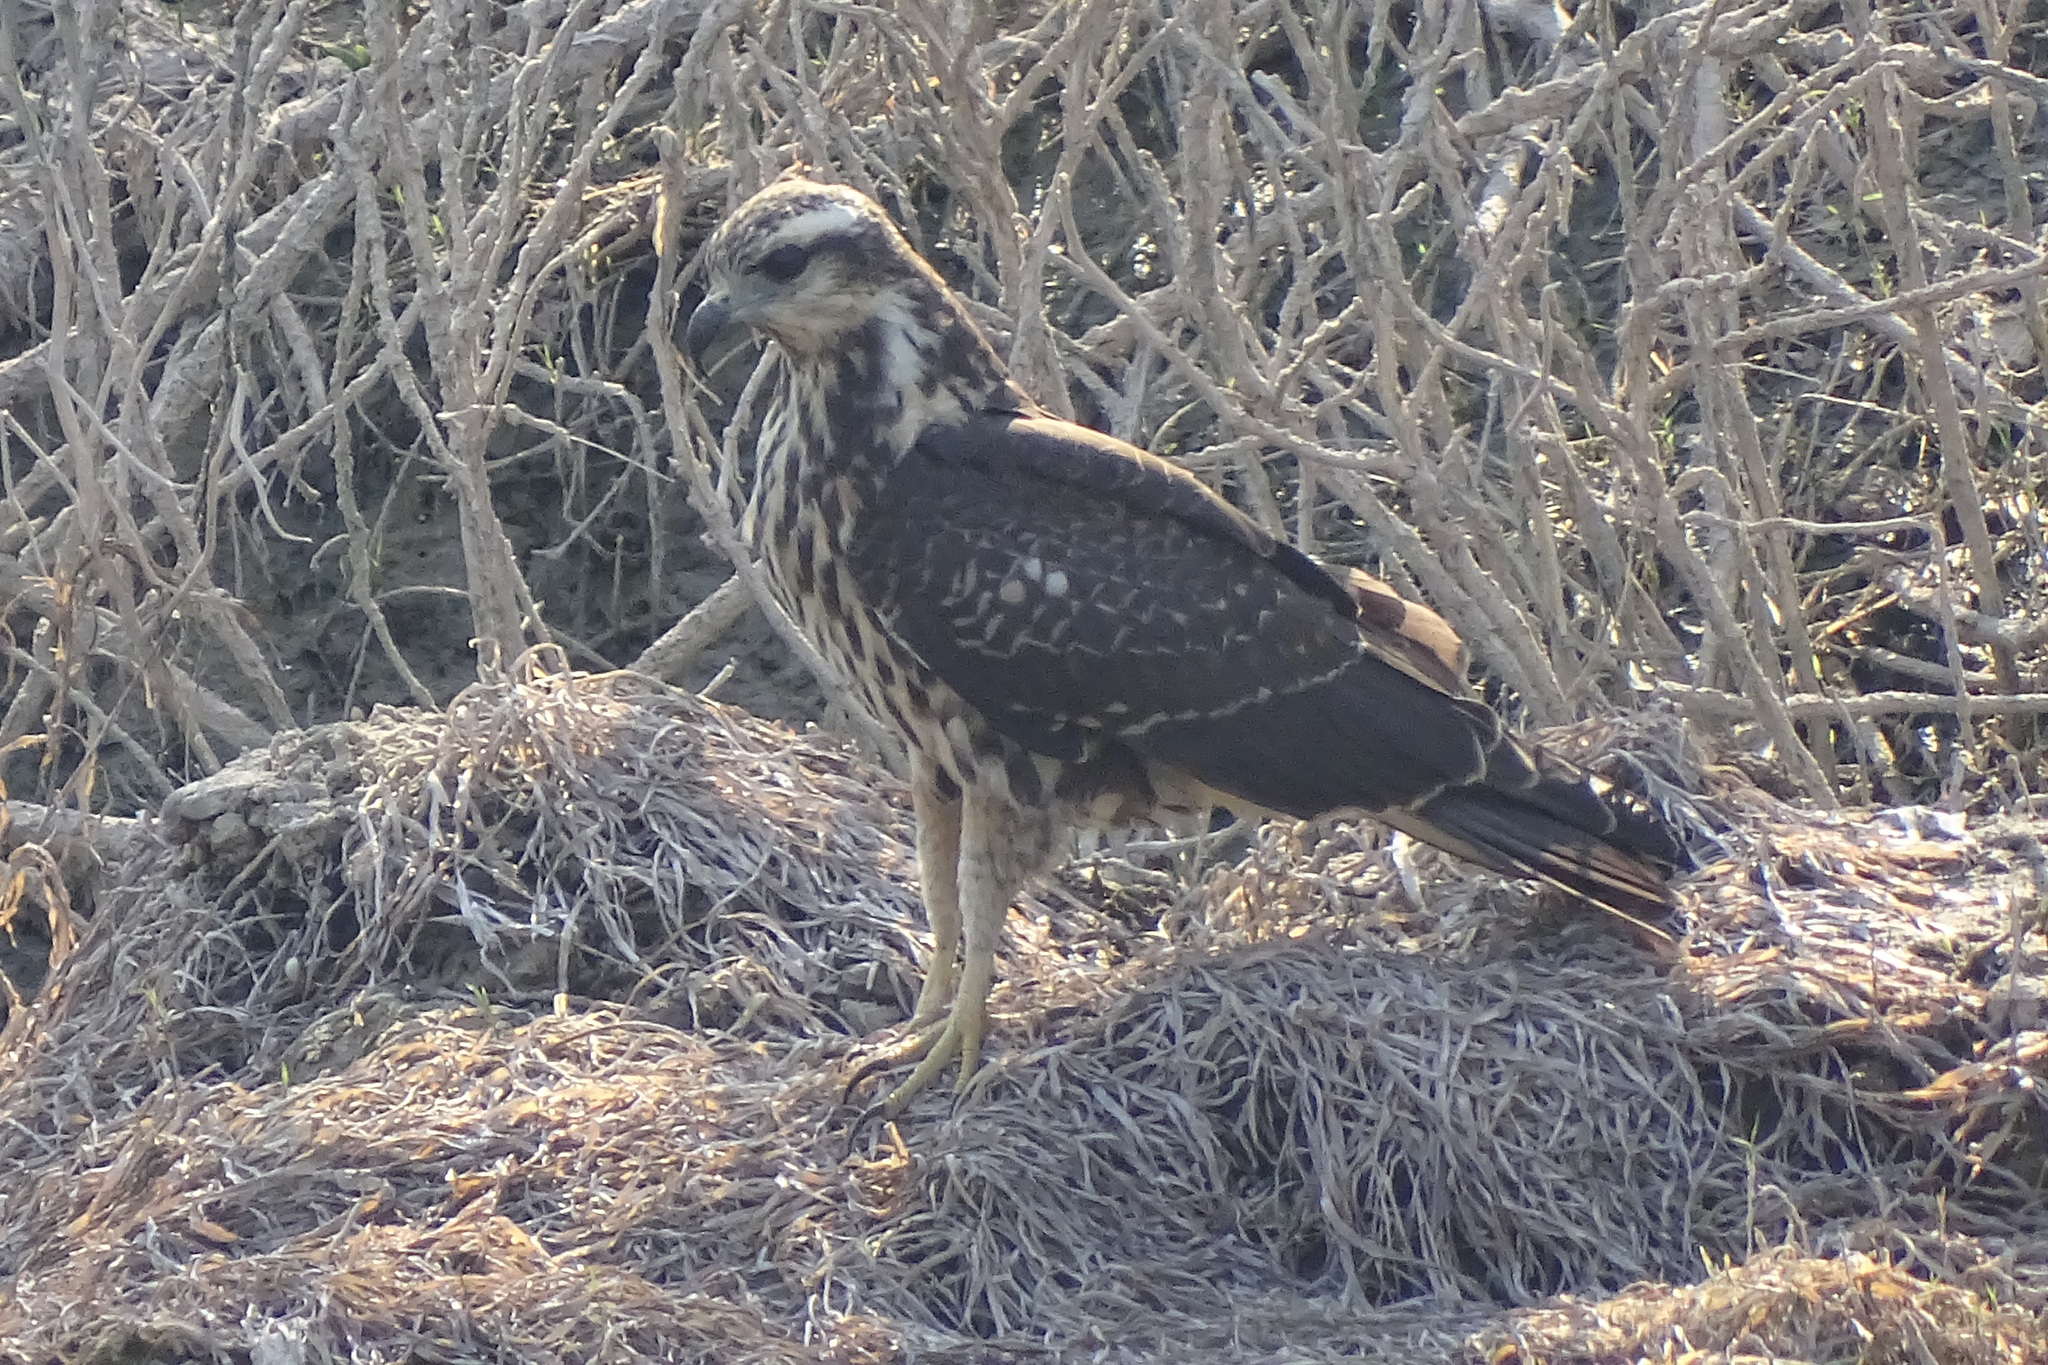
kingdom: Animalia
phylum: Chordata
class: Aves
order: Accipitriformes
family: Accipitridae
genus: Rostrhamus
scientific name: Rostrhamus sociabilis
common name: Snail kite
